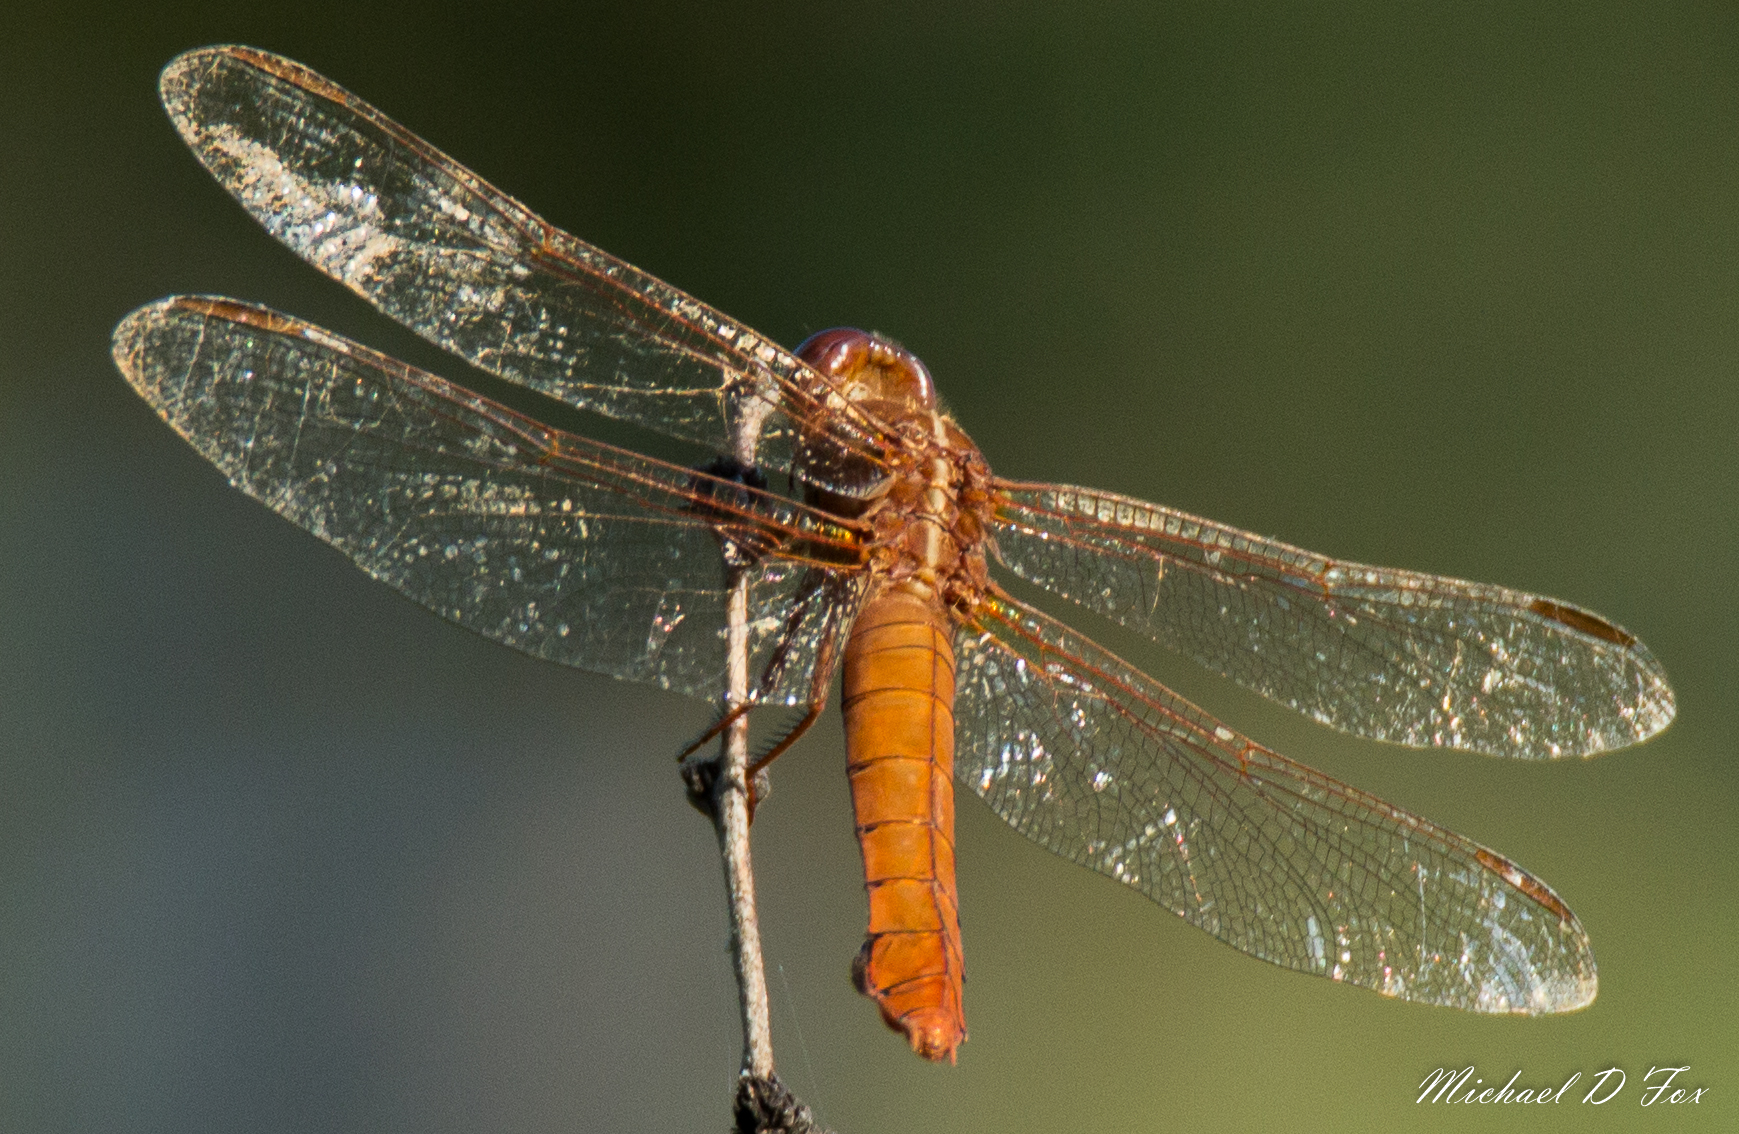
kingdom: Animalia
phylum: Arthropoda
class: Insecta
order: Odonata
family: Libellulidae
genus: Libellula
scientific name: Libellula croceipennis
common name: Neon skimmer
